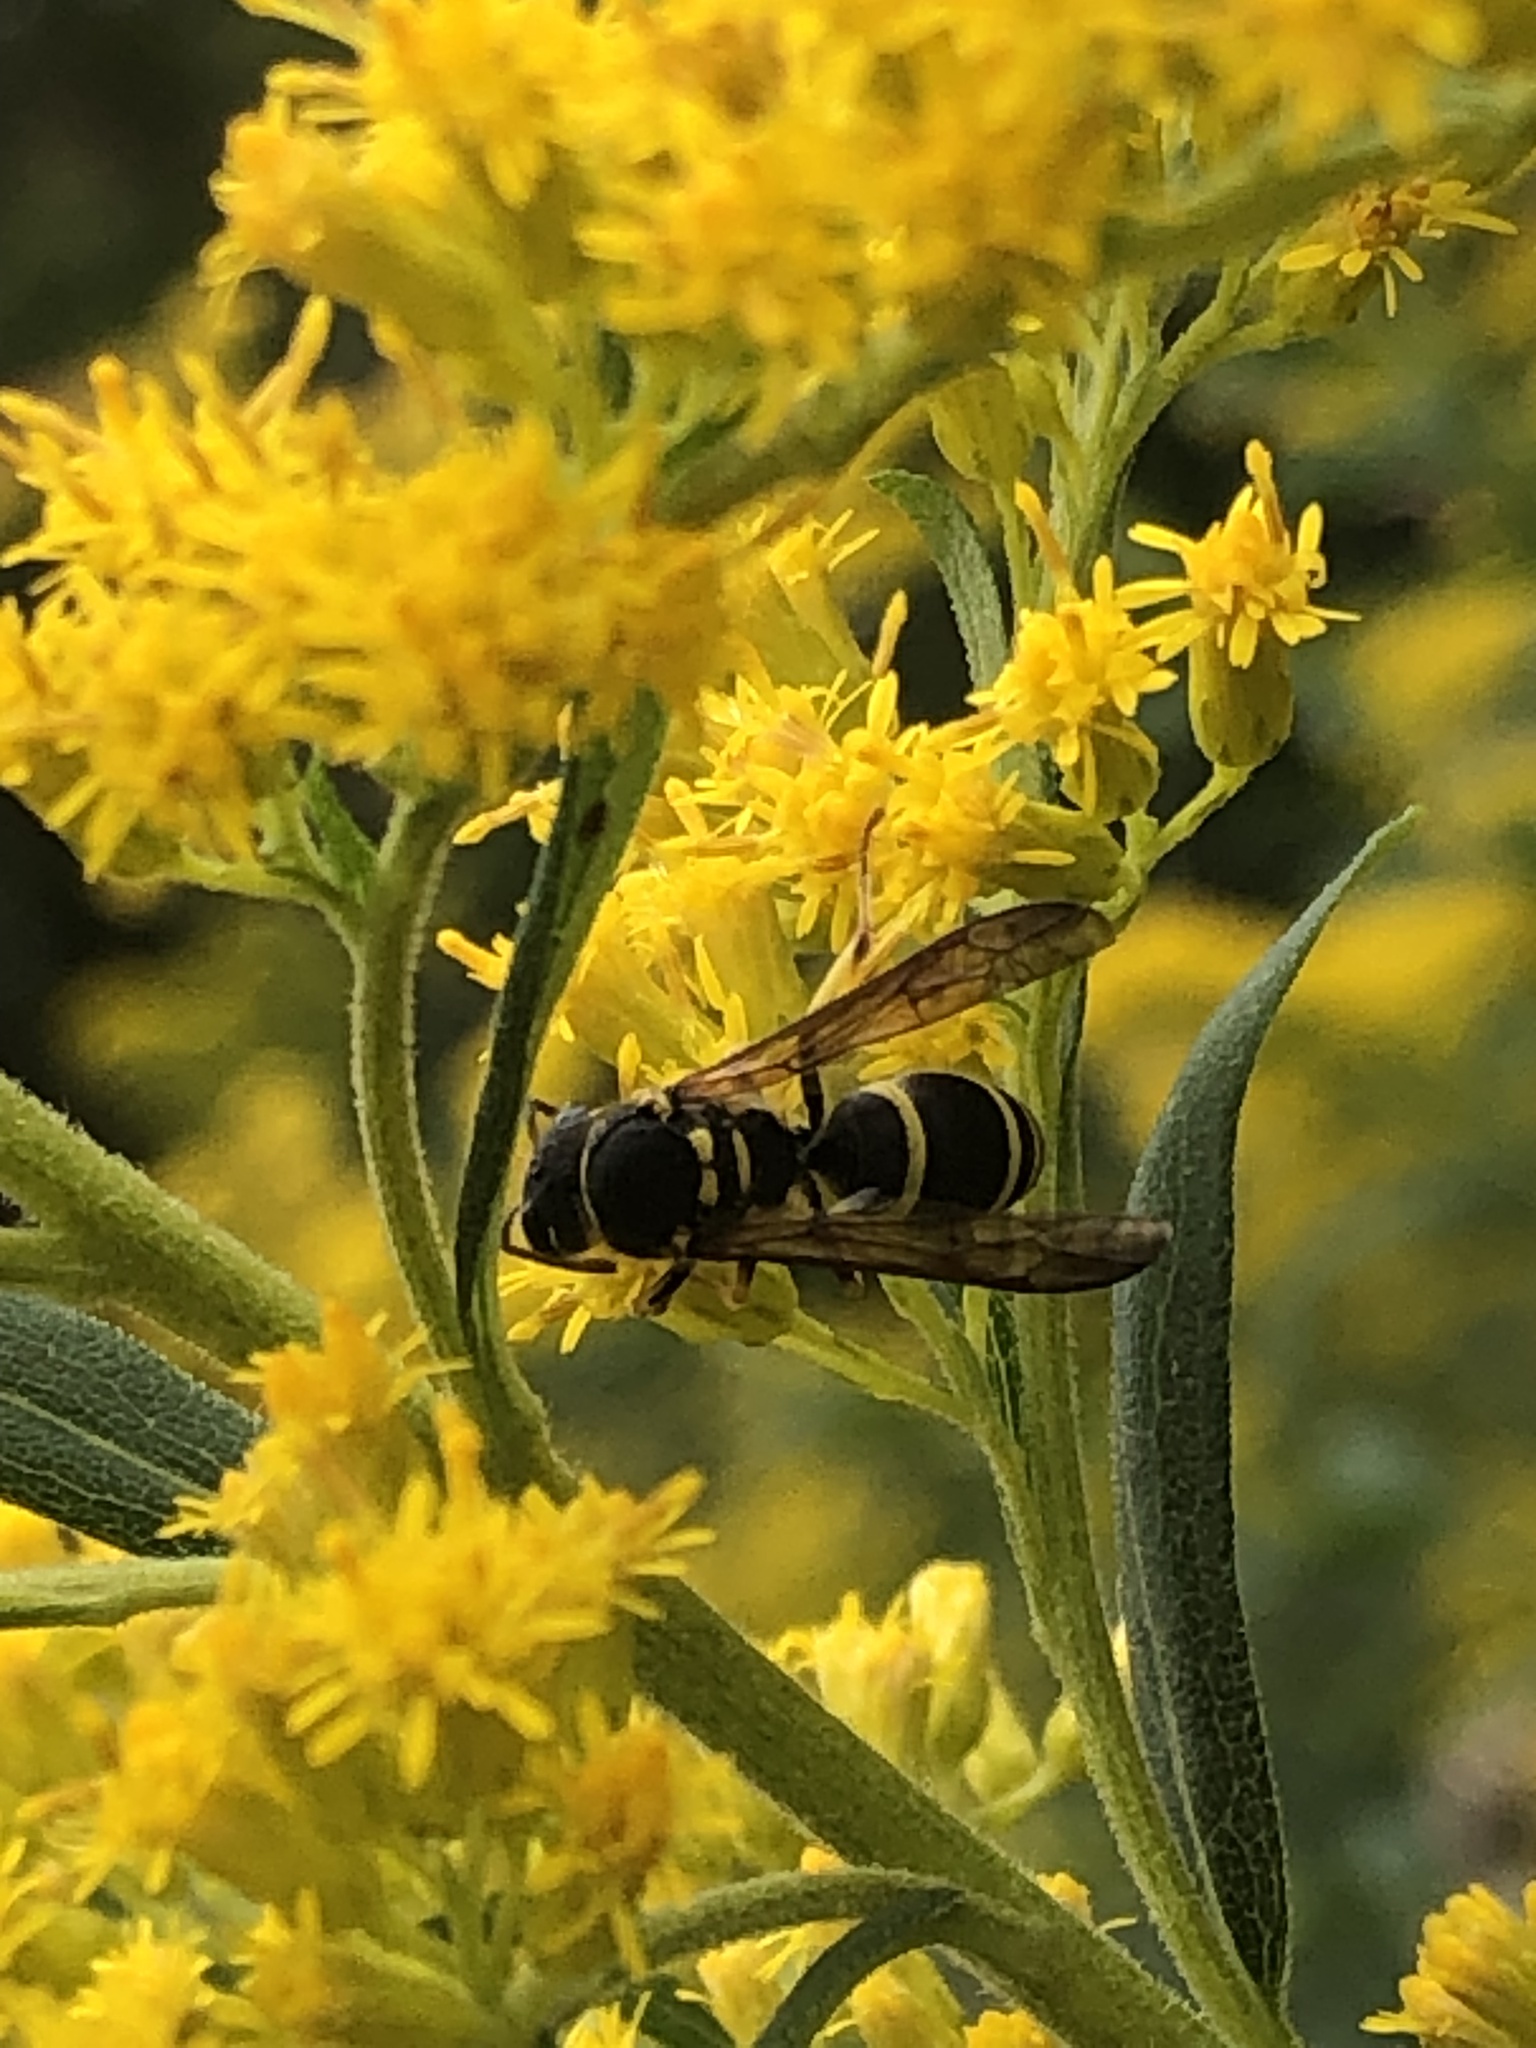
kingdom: Animalia
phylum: Arthropoda
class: Insecta
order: Hymenoptera
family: Vespidae
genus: Ancistrocerus
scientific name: Ancistrocerus adiabatus
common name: Bramble mason wasp
